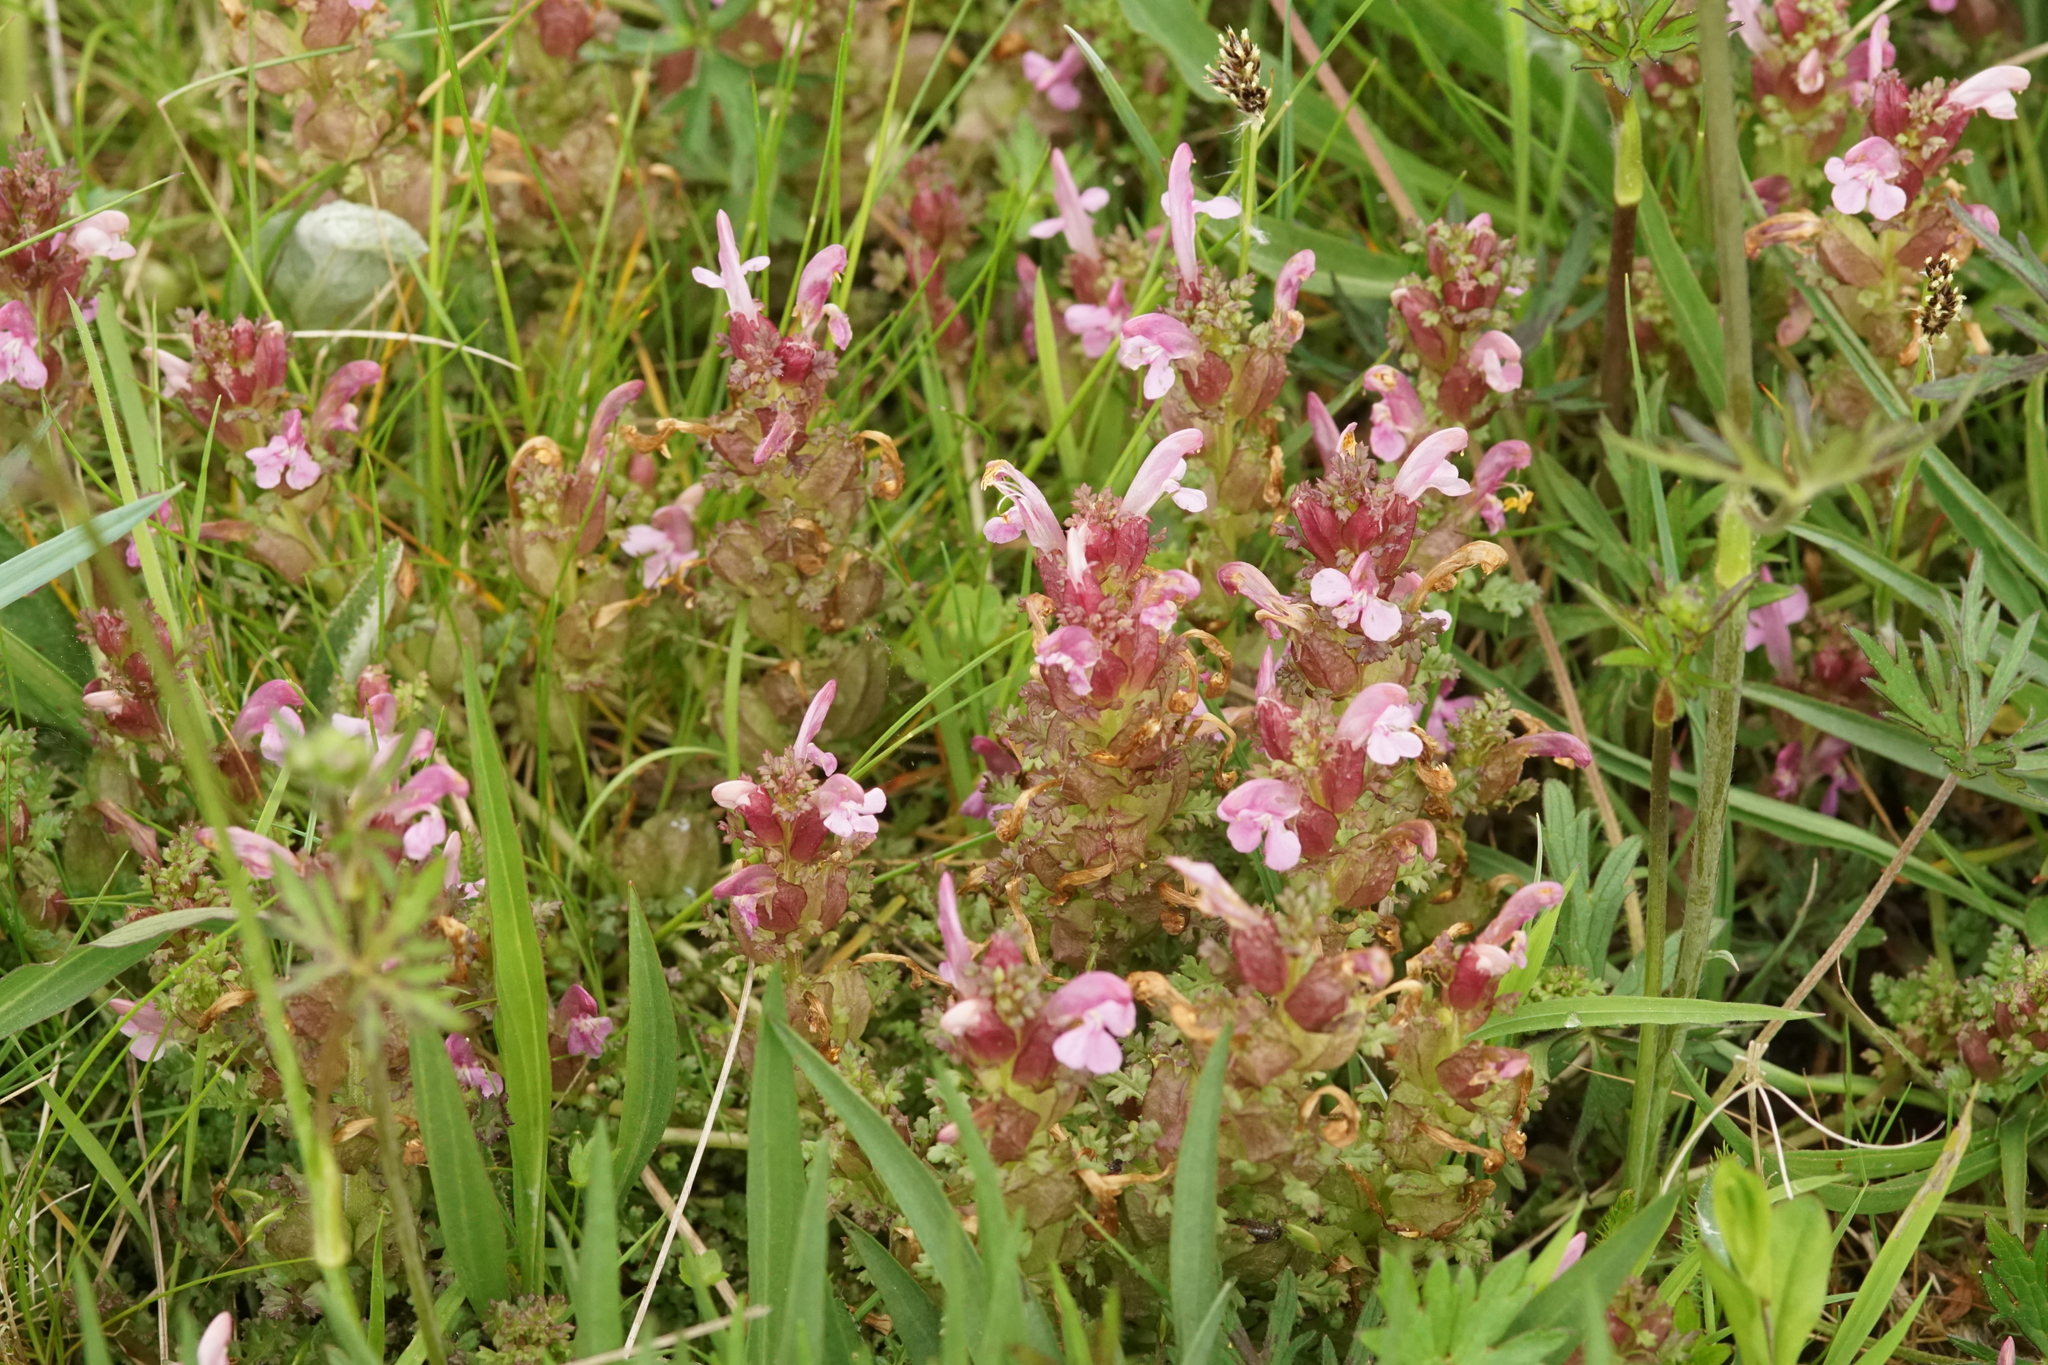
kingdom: Plantae
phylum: Tracheophyta
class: Magnoliopsida
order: Lamiales
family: Orobanchaceae
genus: Pedicularis
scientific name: Pedicularis sylvatica
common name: Lousewort
